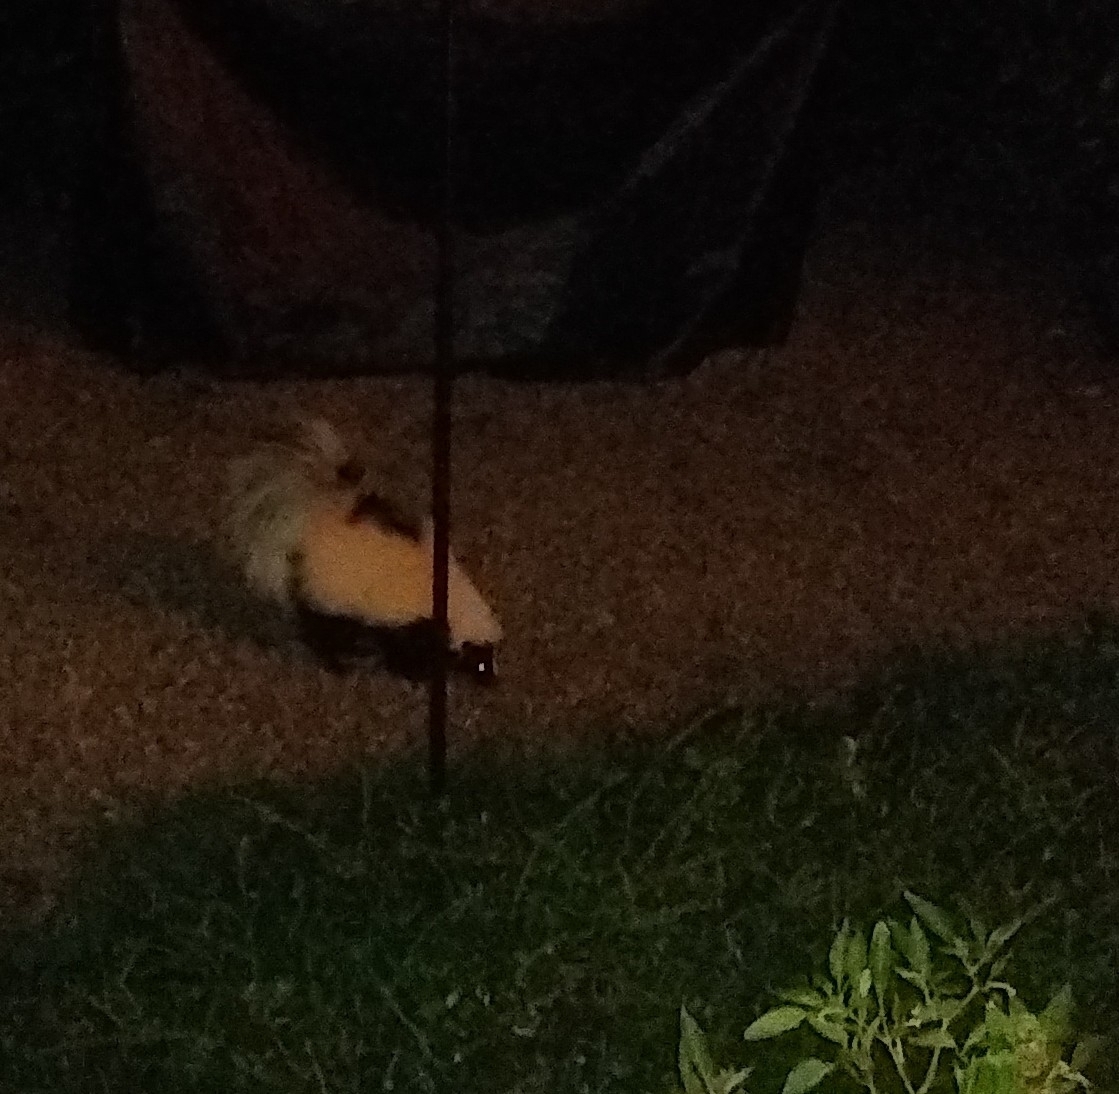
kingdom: Animalia
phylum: Chordata
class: Mammalia
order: Carnivora
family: Mephitidae
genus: Mephitis
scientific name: Mephitis mephitis
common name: Striped skunk
